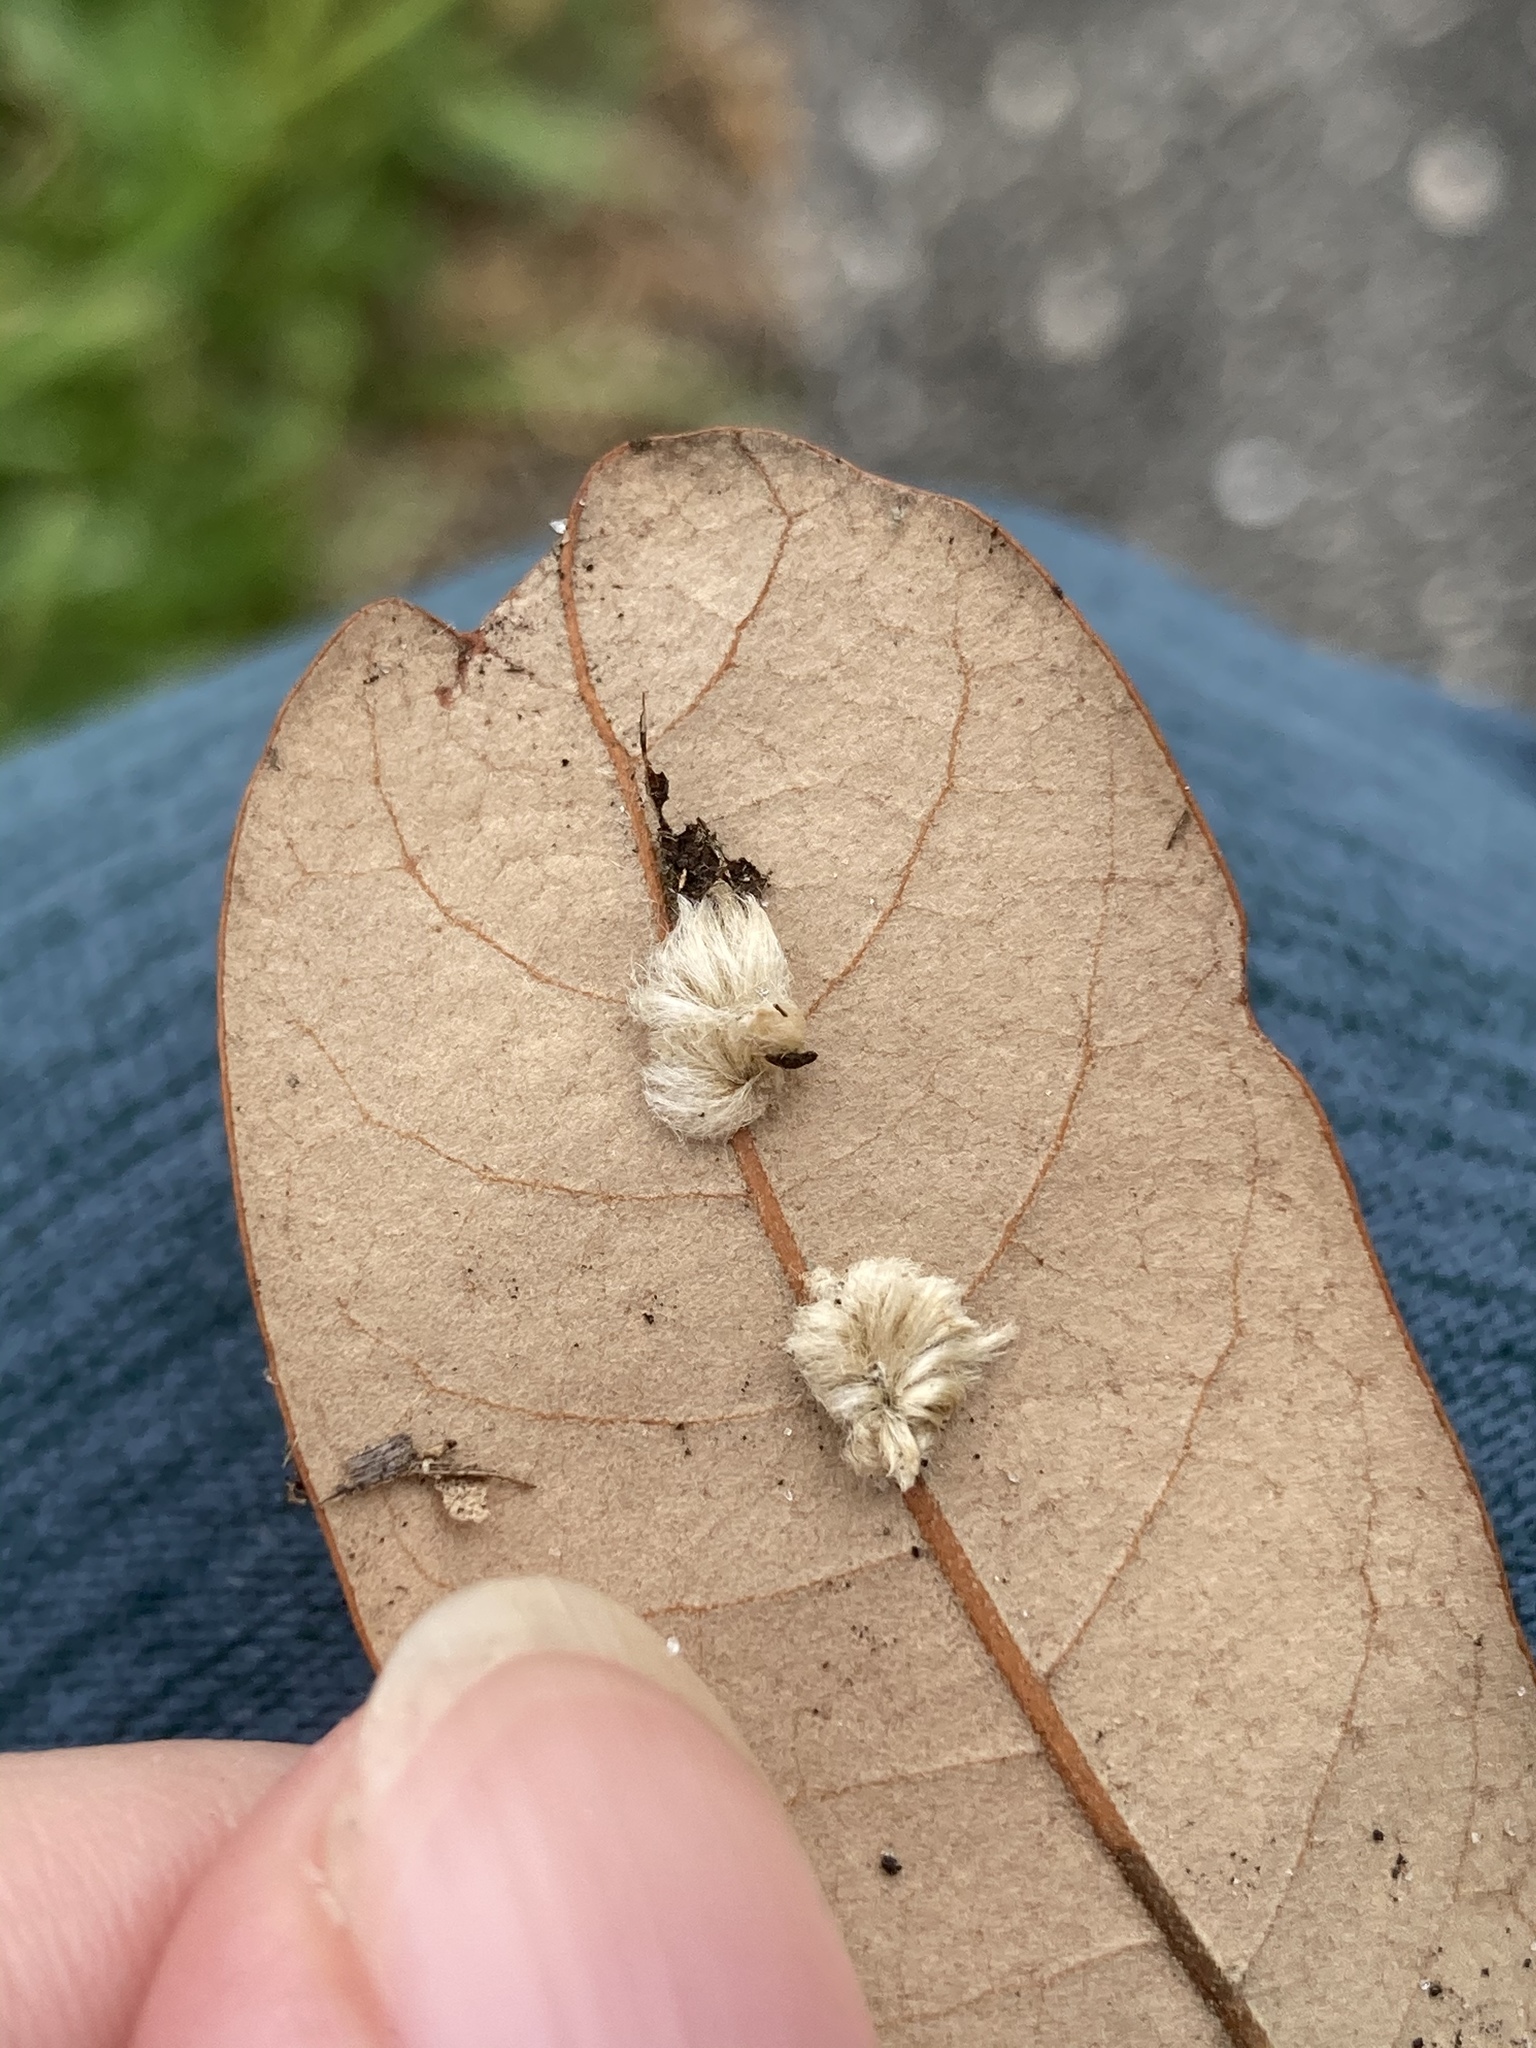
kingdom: Animalia
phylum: Arthropoda
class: Insecta
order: Hymenoptera
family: Cynipidae
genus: Andricus
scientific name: Andricus Druon quercuslanigerum
